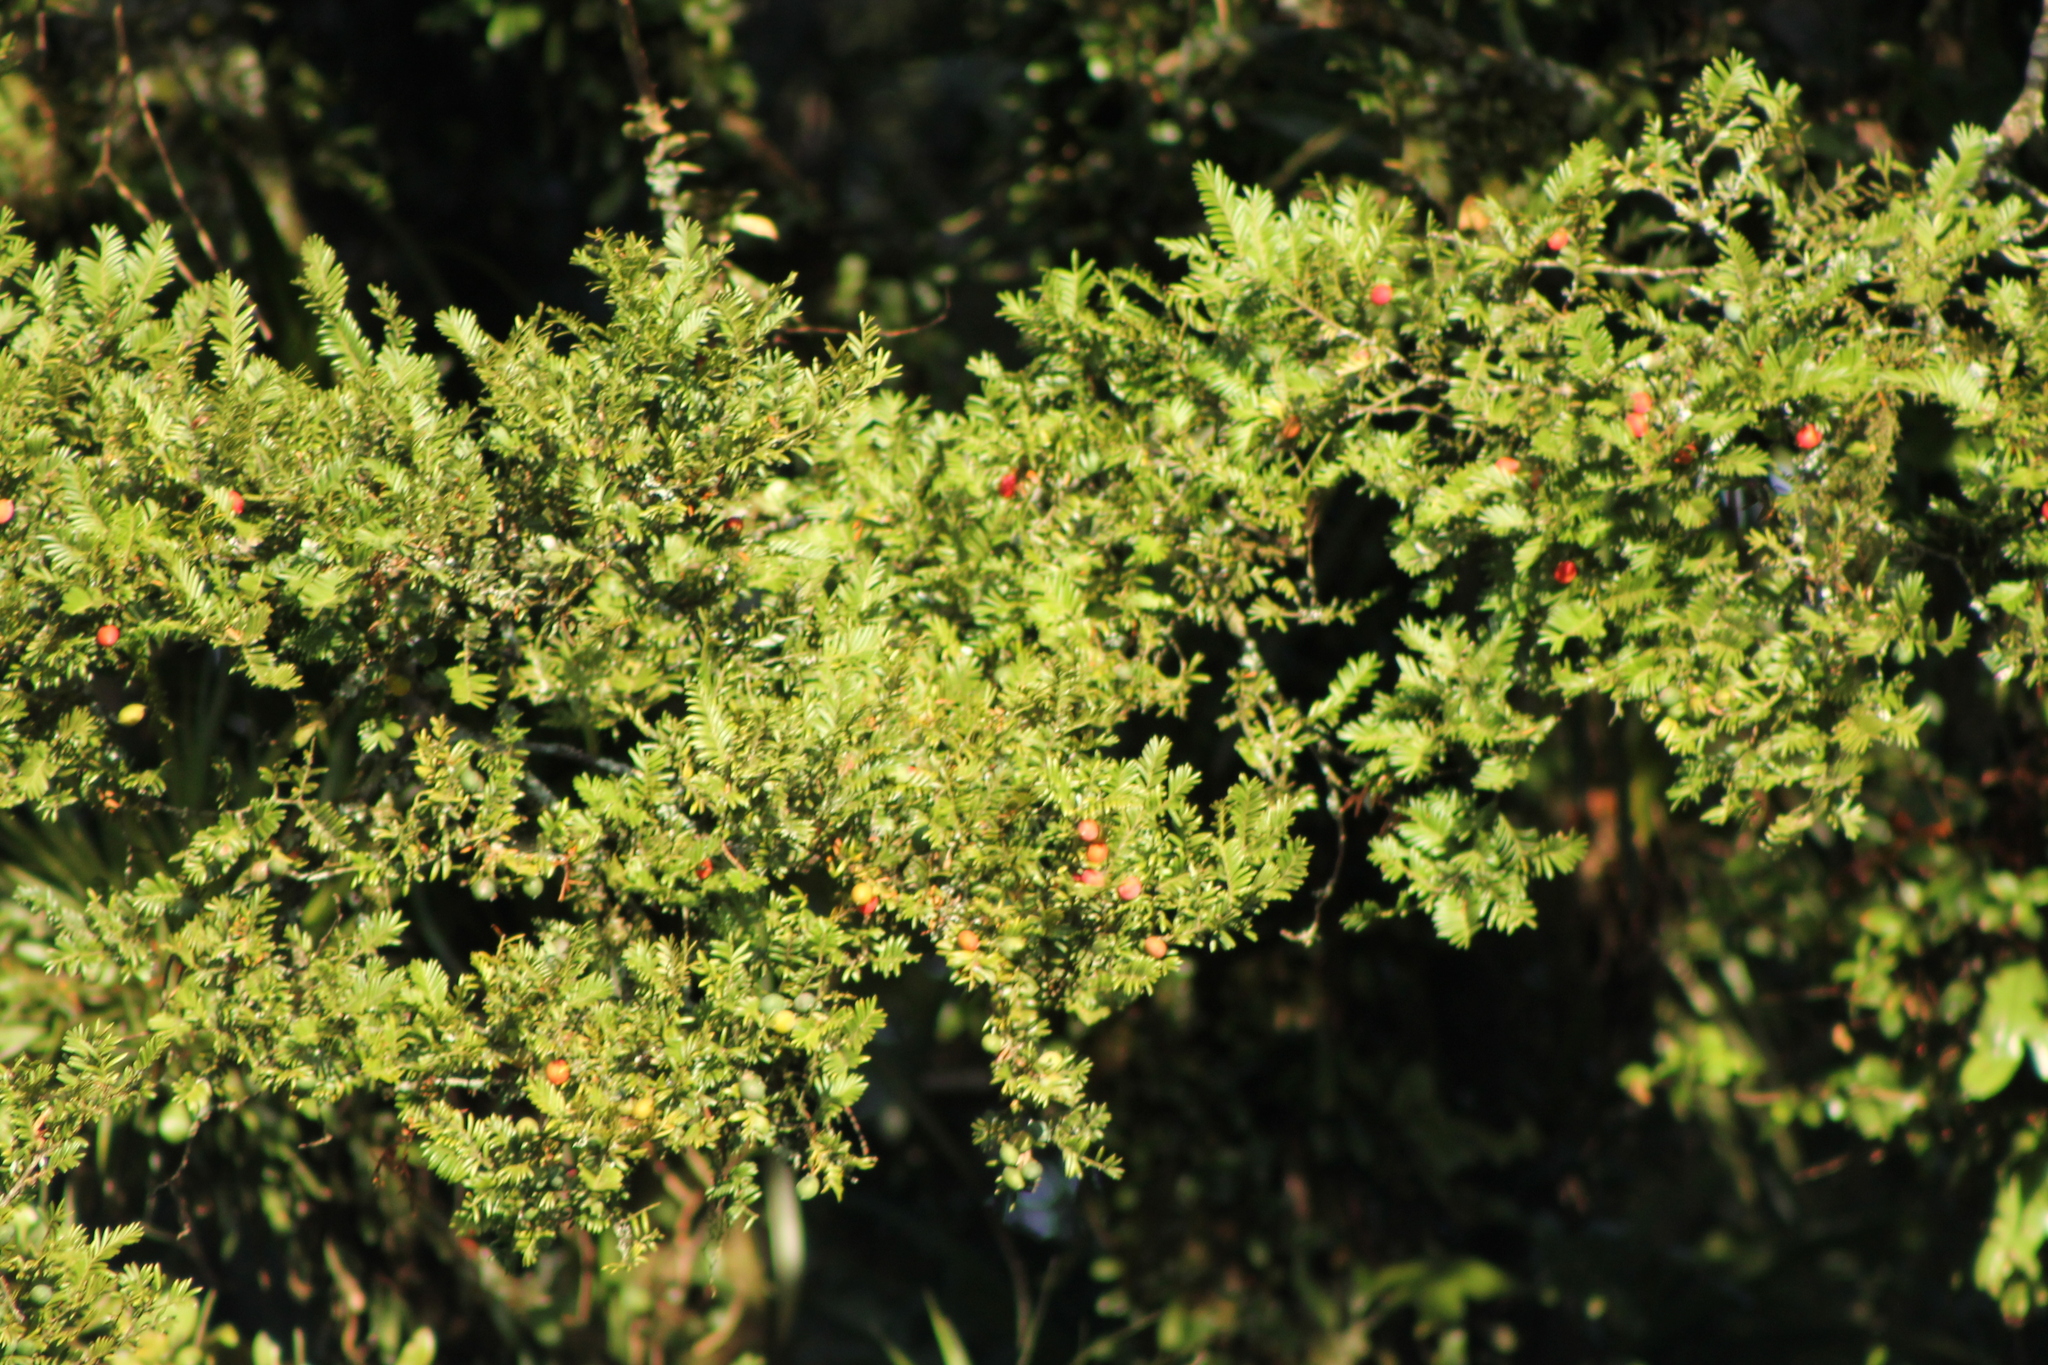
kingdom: Plantae
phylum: Tracheophyta
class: Pinopsida
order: Pinales
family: Podocarpaceae
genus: Prumnopitys
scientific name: Prumnopitys ferruginea
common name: Brown pine
